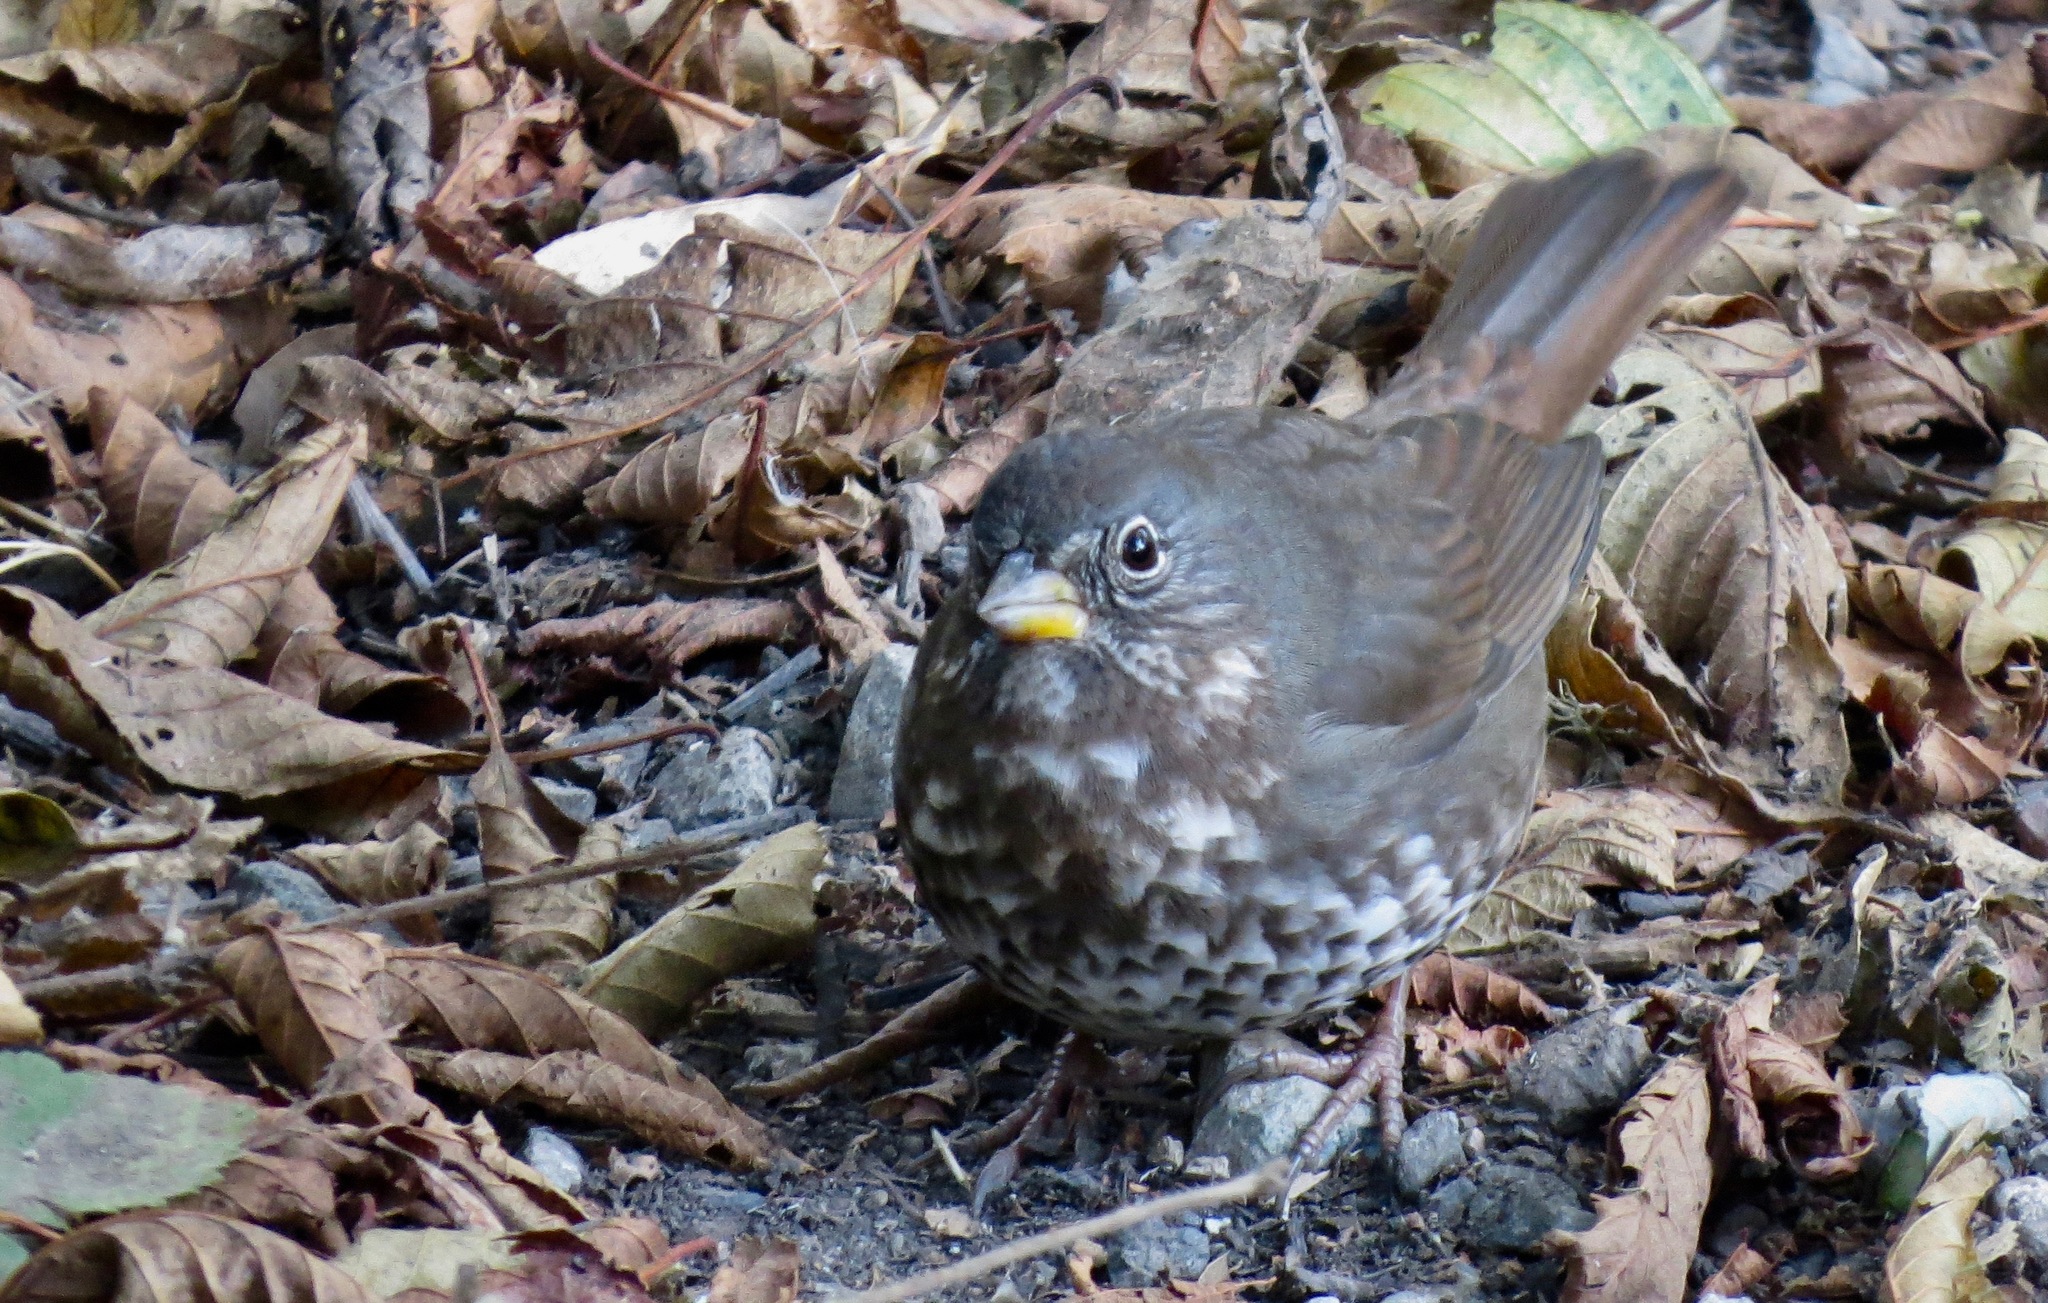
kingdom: Animalia
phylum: Chordata
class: Aves
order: Passeriformes
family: Passerellidae
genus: Passerella
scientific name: Passerella iliaca
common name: Fox sparrow
